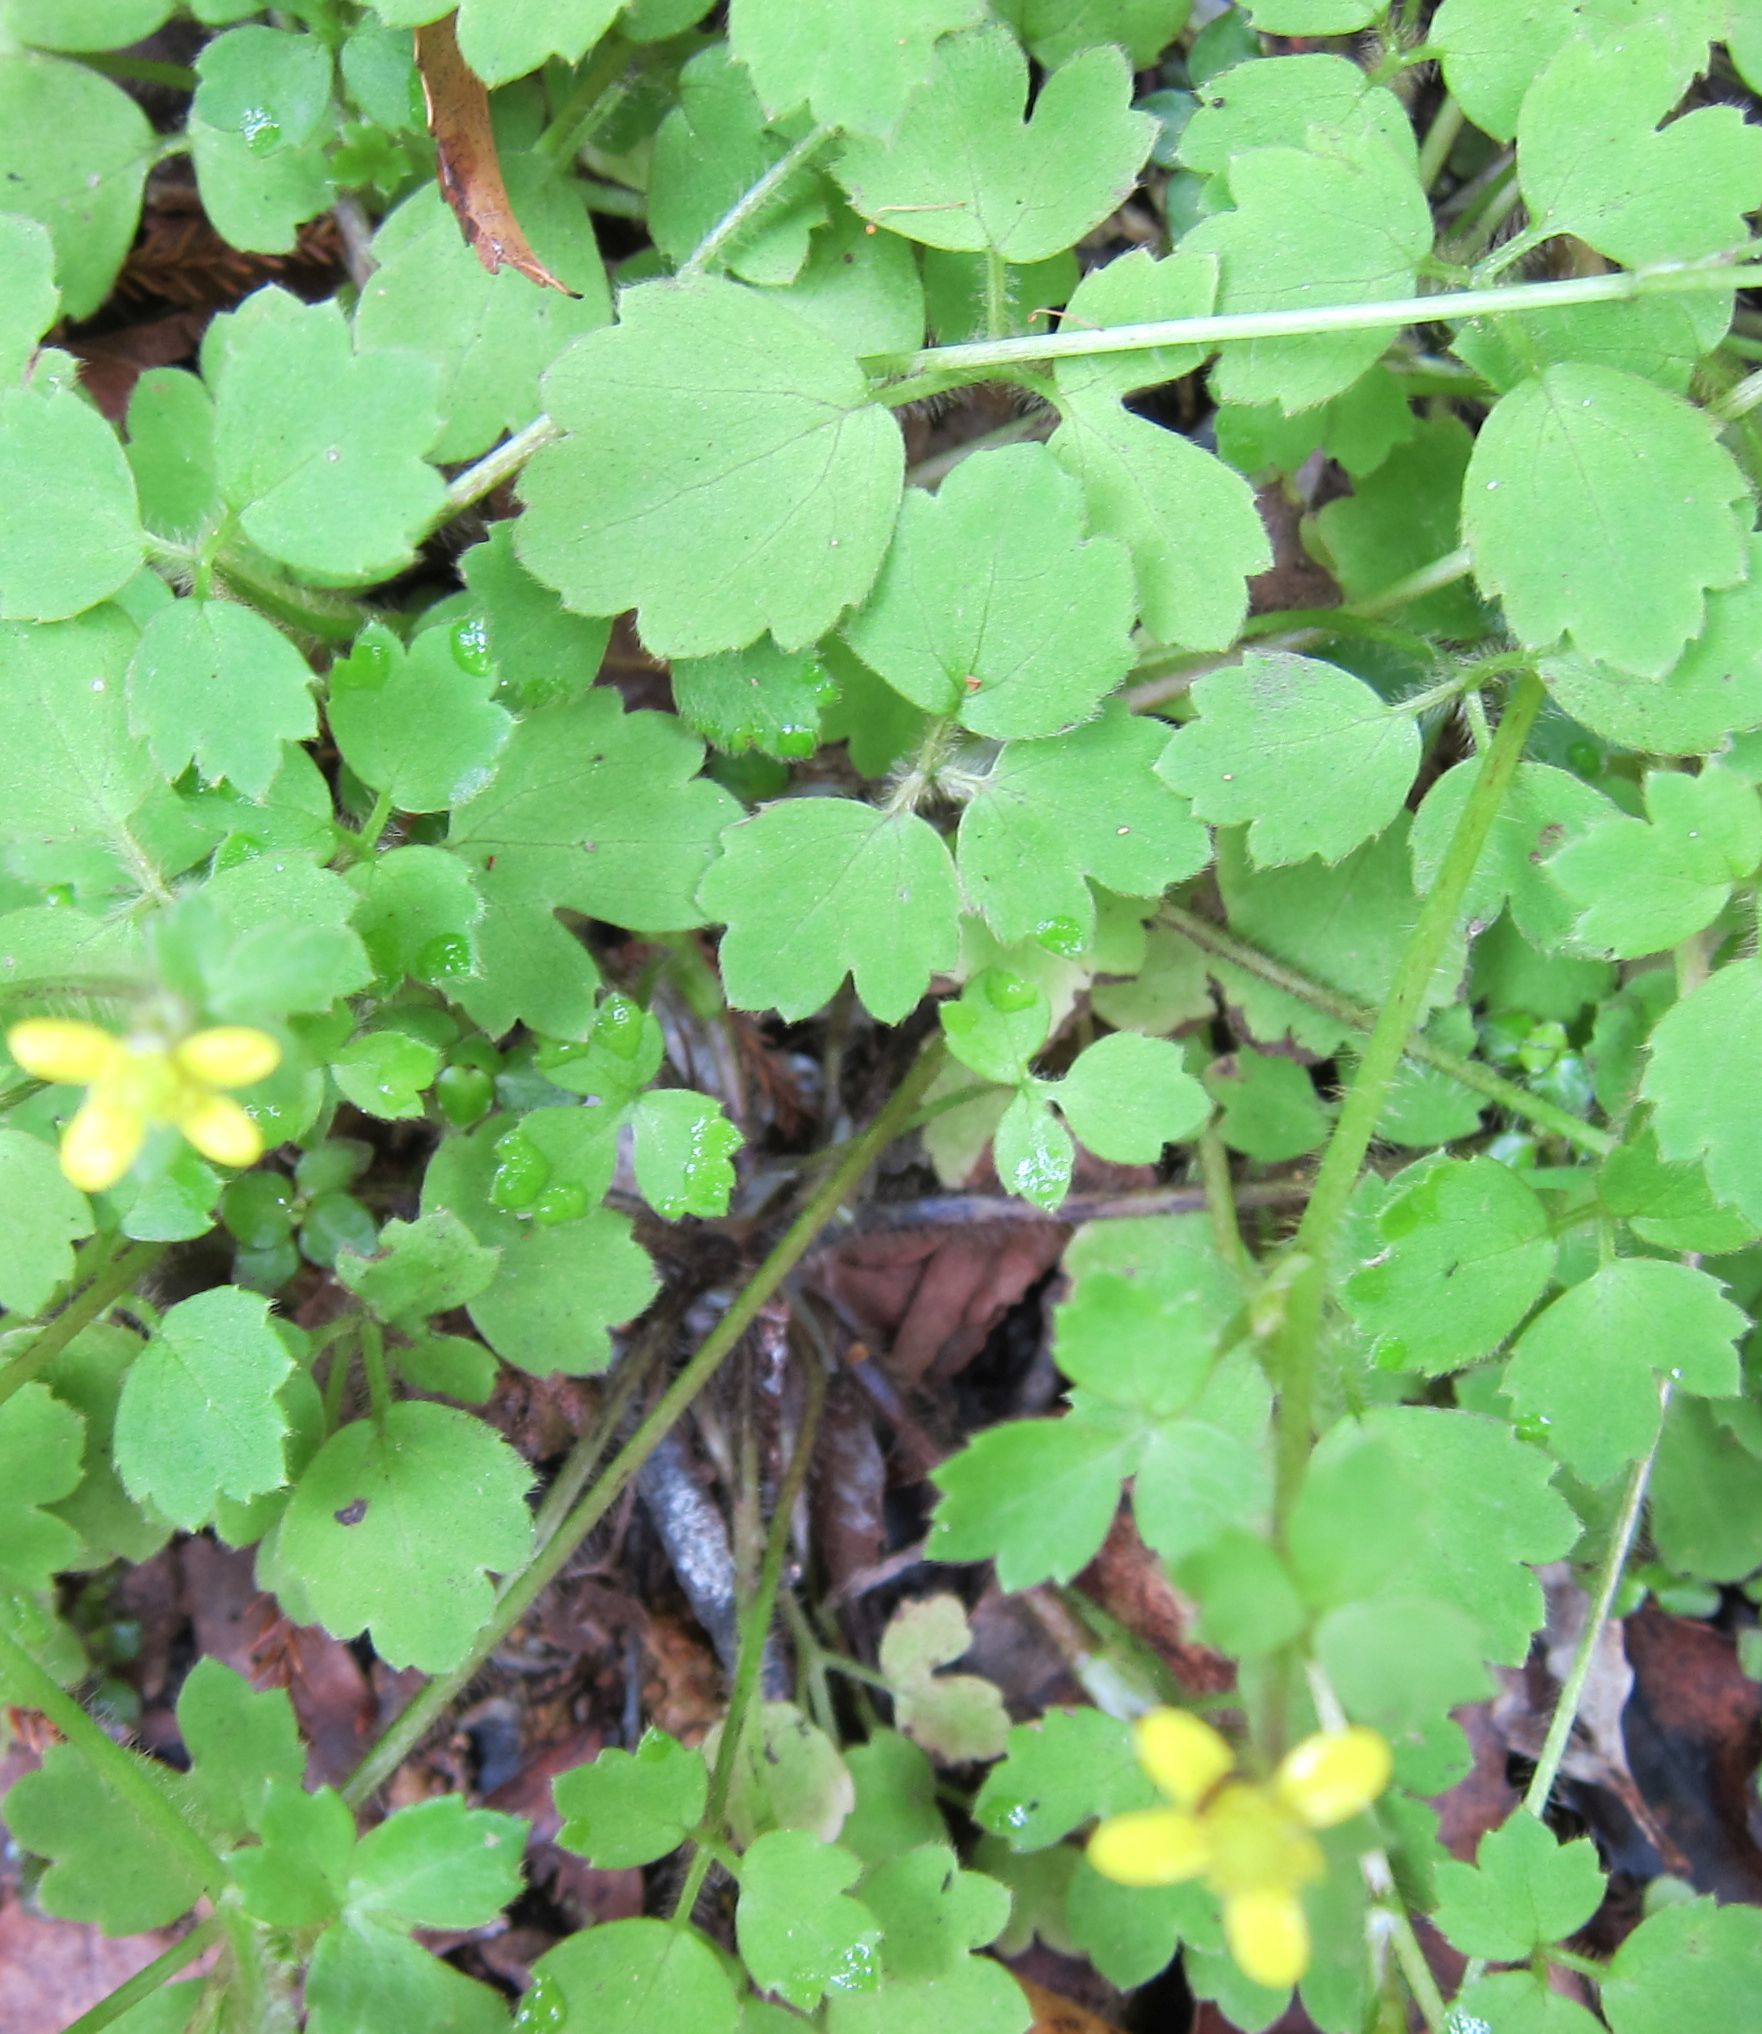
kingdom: Plantae
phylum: Tracheophyta
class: Magnoliopsida
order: Ranunculales
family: Ranunculaceae
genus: Ranunculus
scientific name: Ranunculus reflexus
